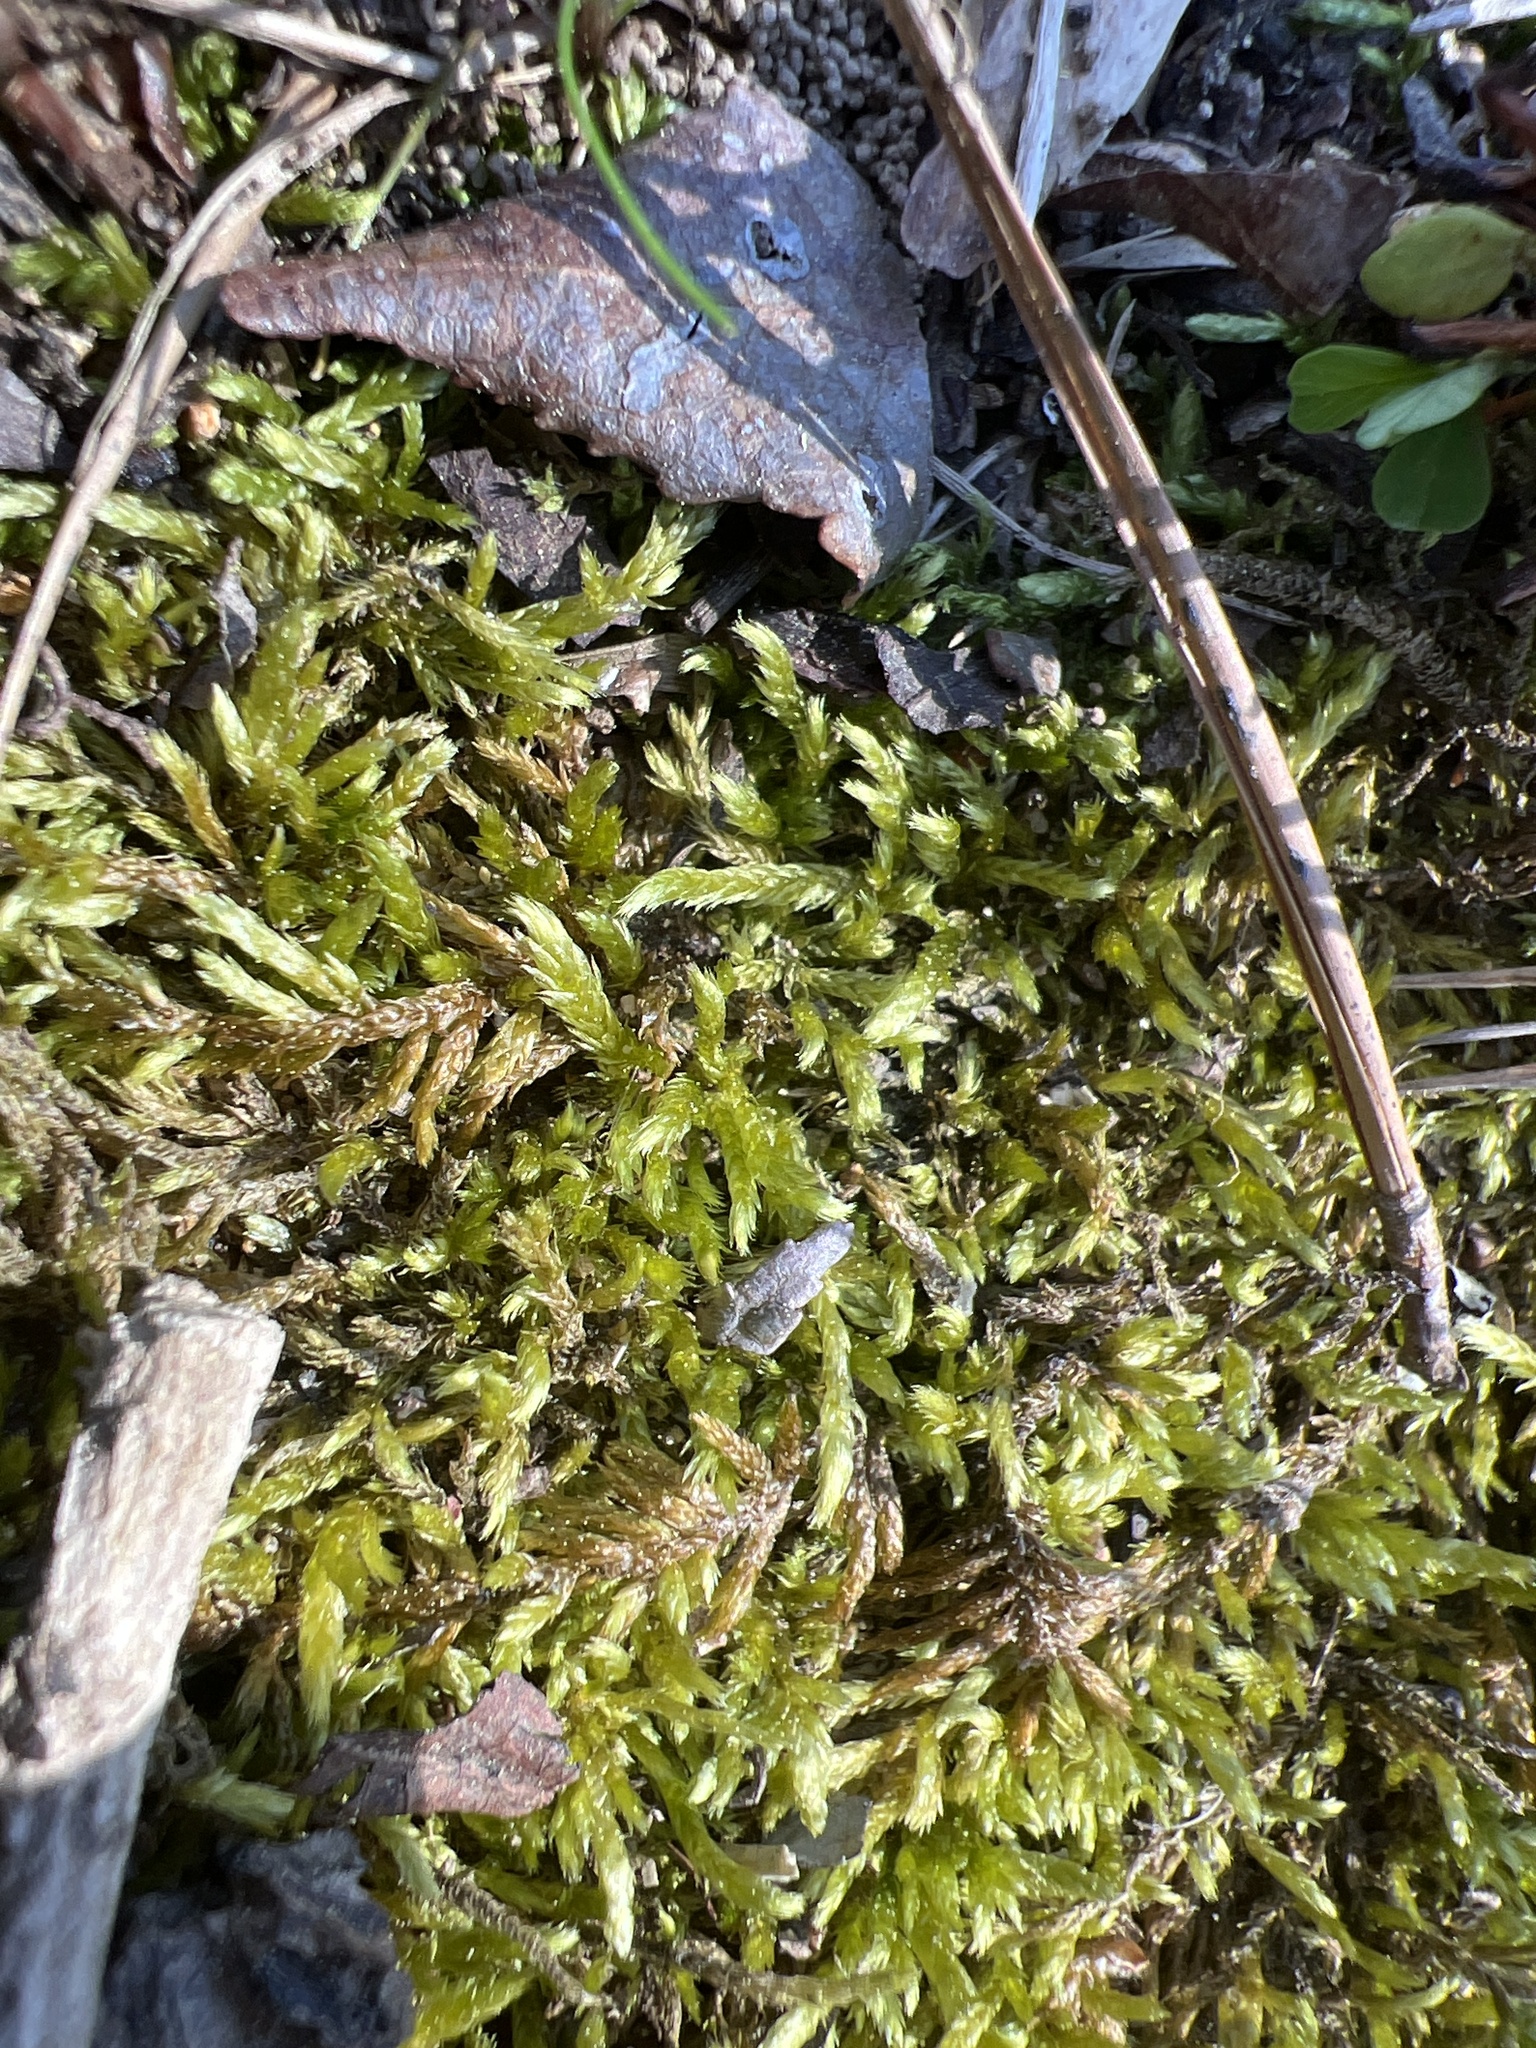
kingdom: Plantae
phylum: Bryophyta
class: Bryopsida
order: Hypnales
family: Entodontaceae
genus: Entodon
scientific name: Entodon seductrix
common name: Round-stemmed entodon moss
